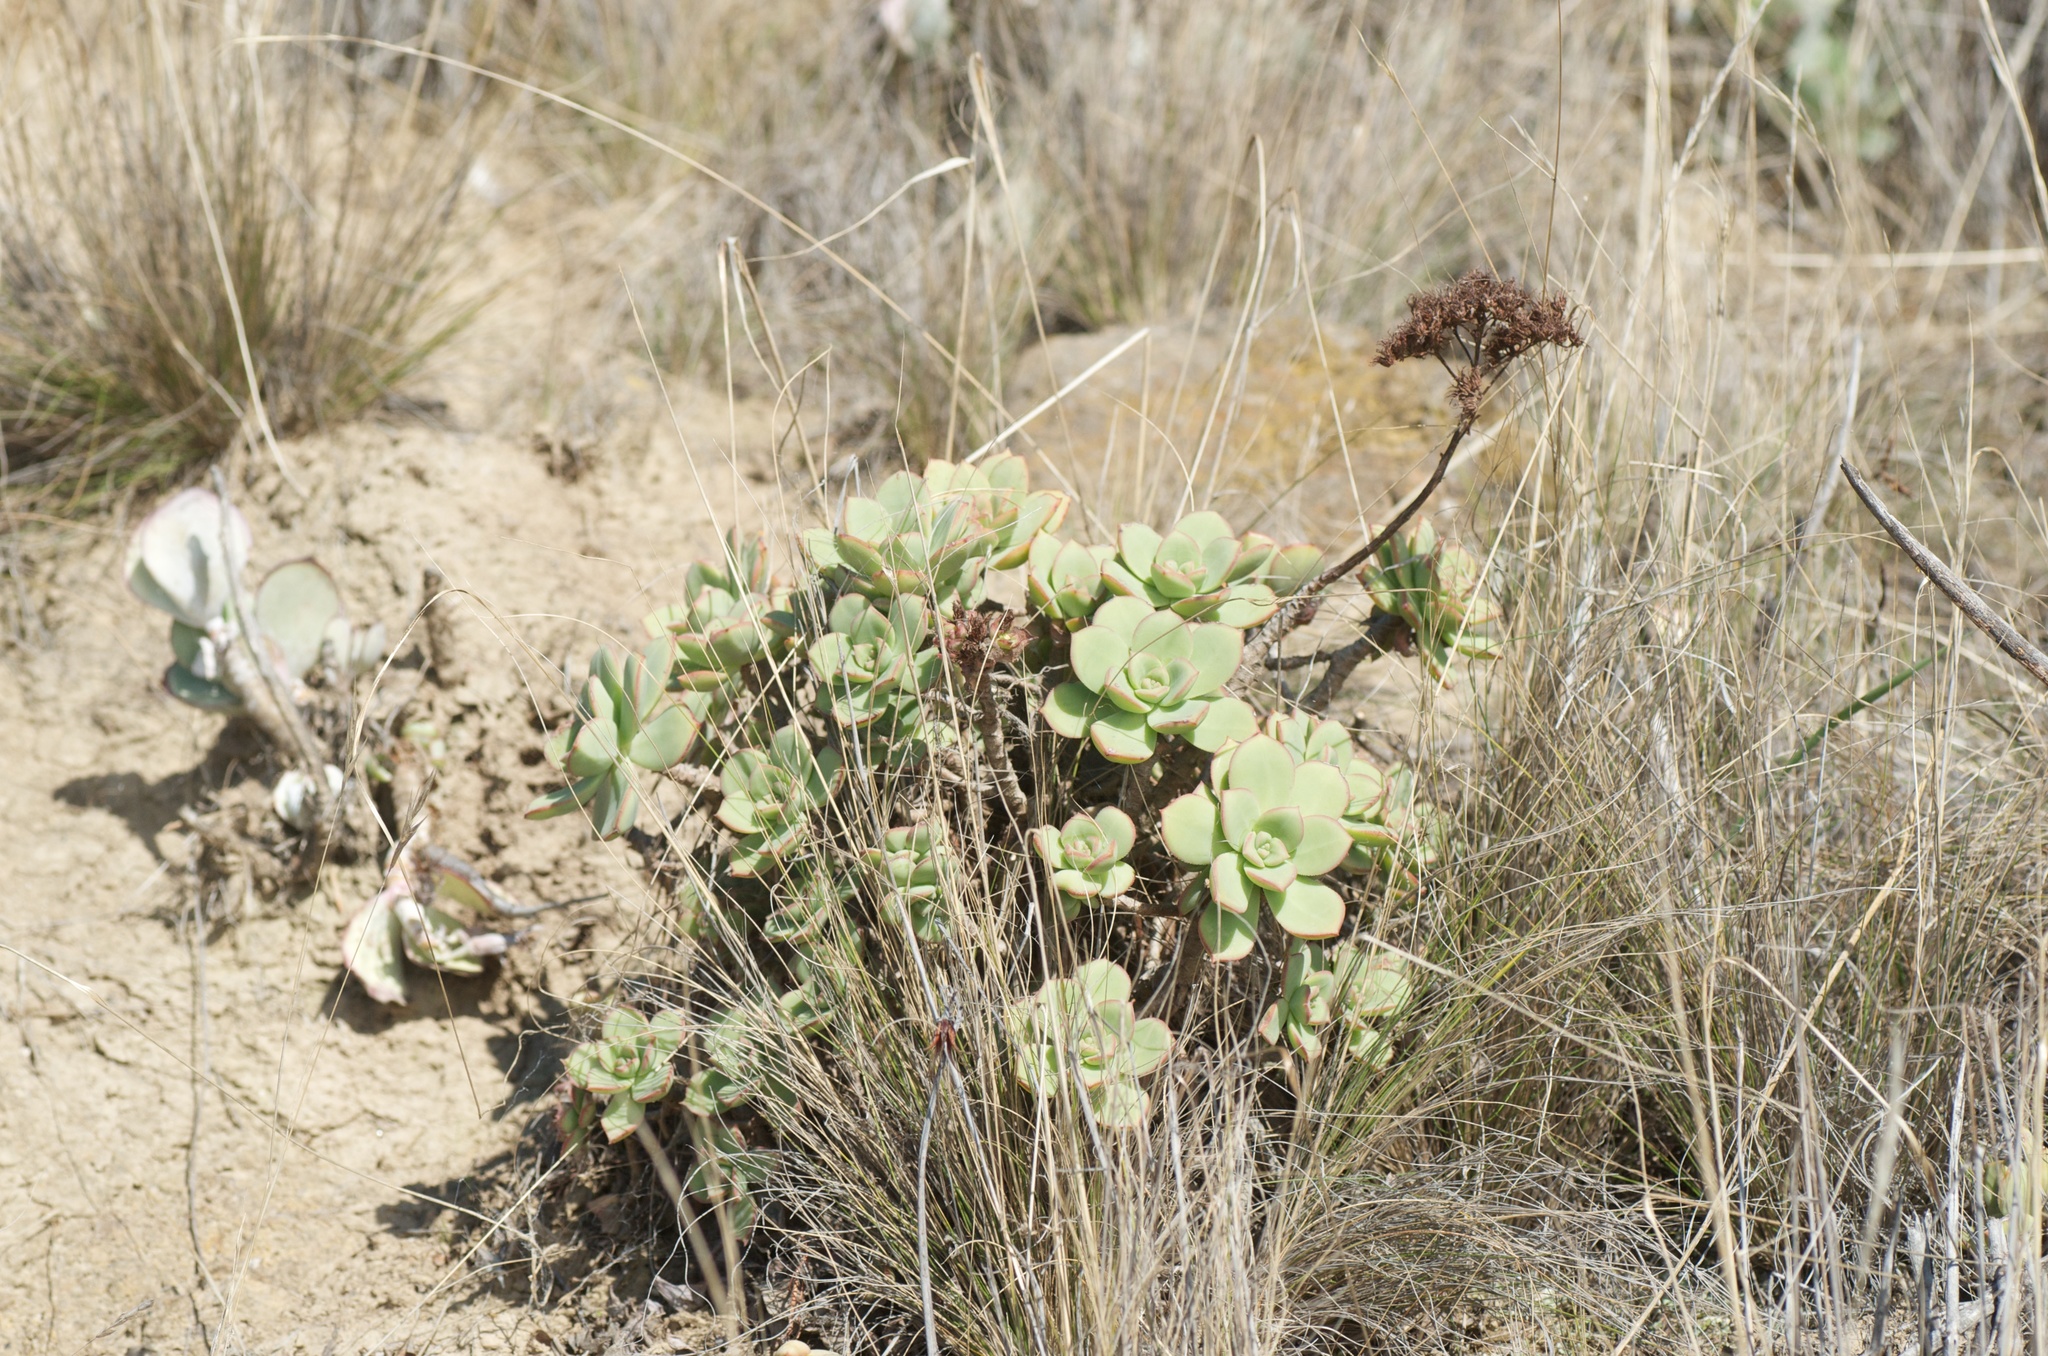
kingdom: Plantae
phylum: Tracheophyta
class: Magnoliopsida
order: Saxifragales
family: Crassulaceae
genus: Aeonium
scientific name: Aeonium haworthii
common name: Haworth's aeonium
